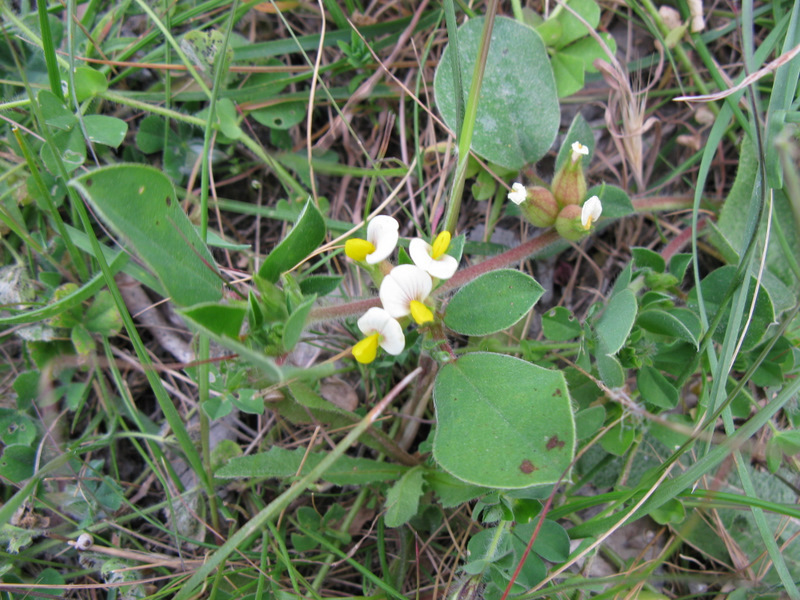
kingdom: Plantae
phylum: Tracheophyta
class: Magnoliopsida
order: Fabales
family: Fabaceae
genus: Tripodion
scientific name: Tripodion tetraphyllum
